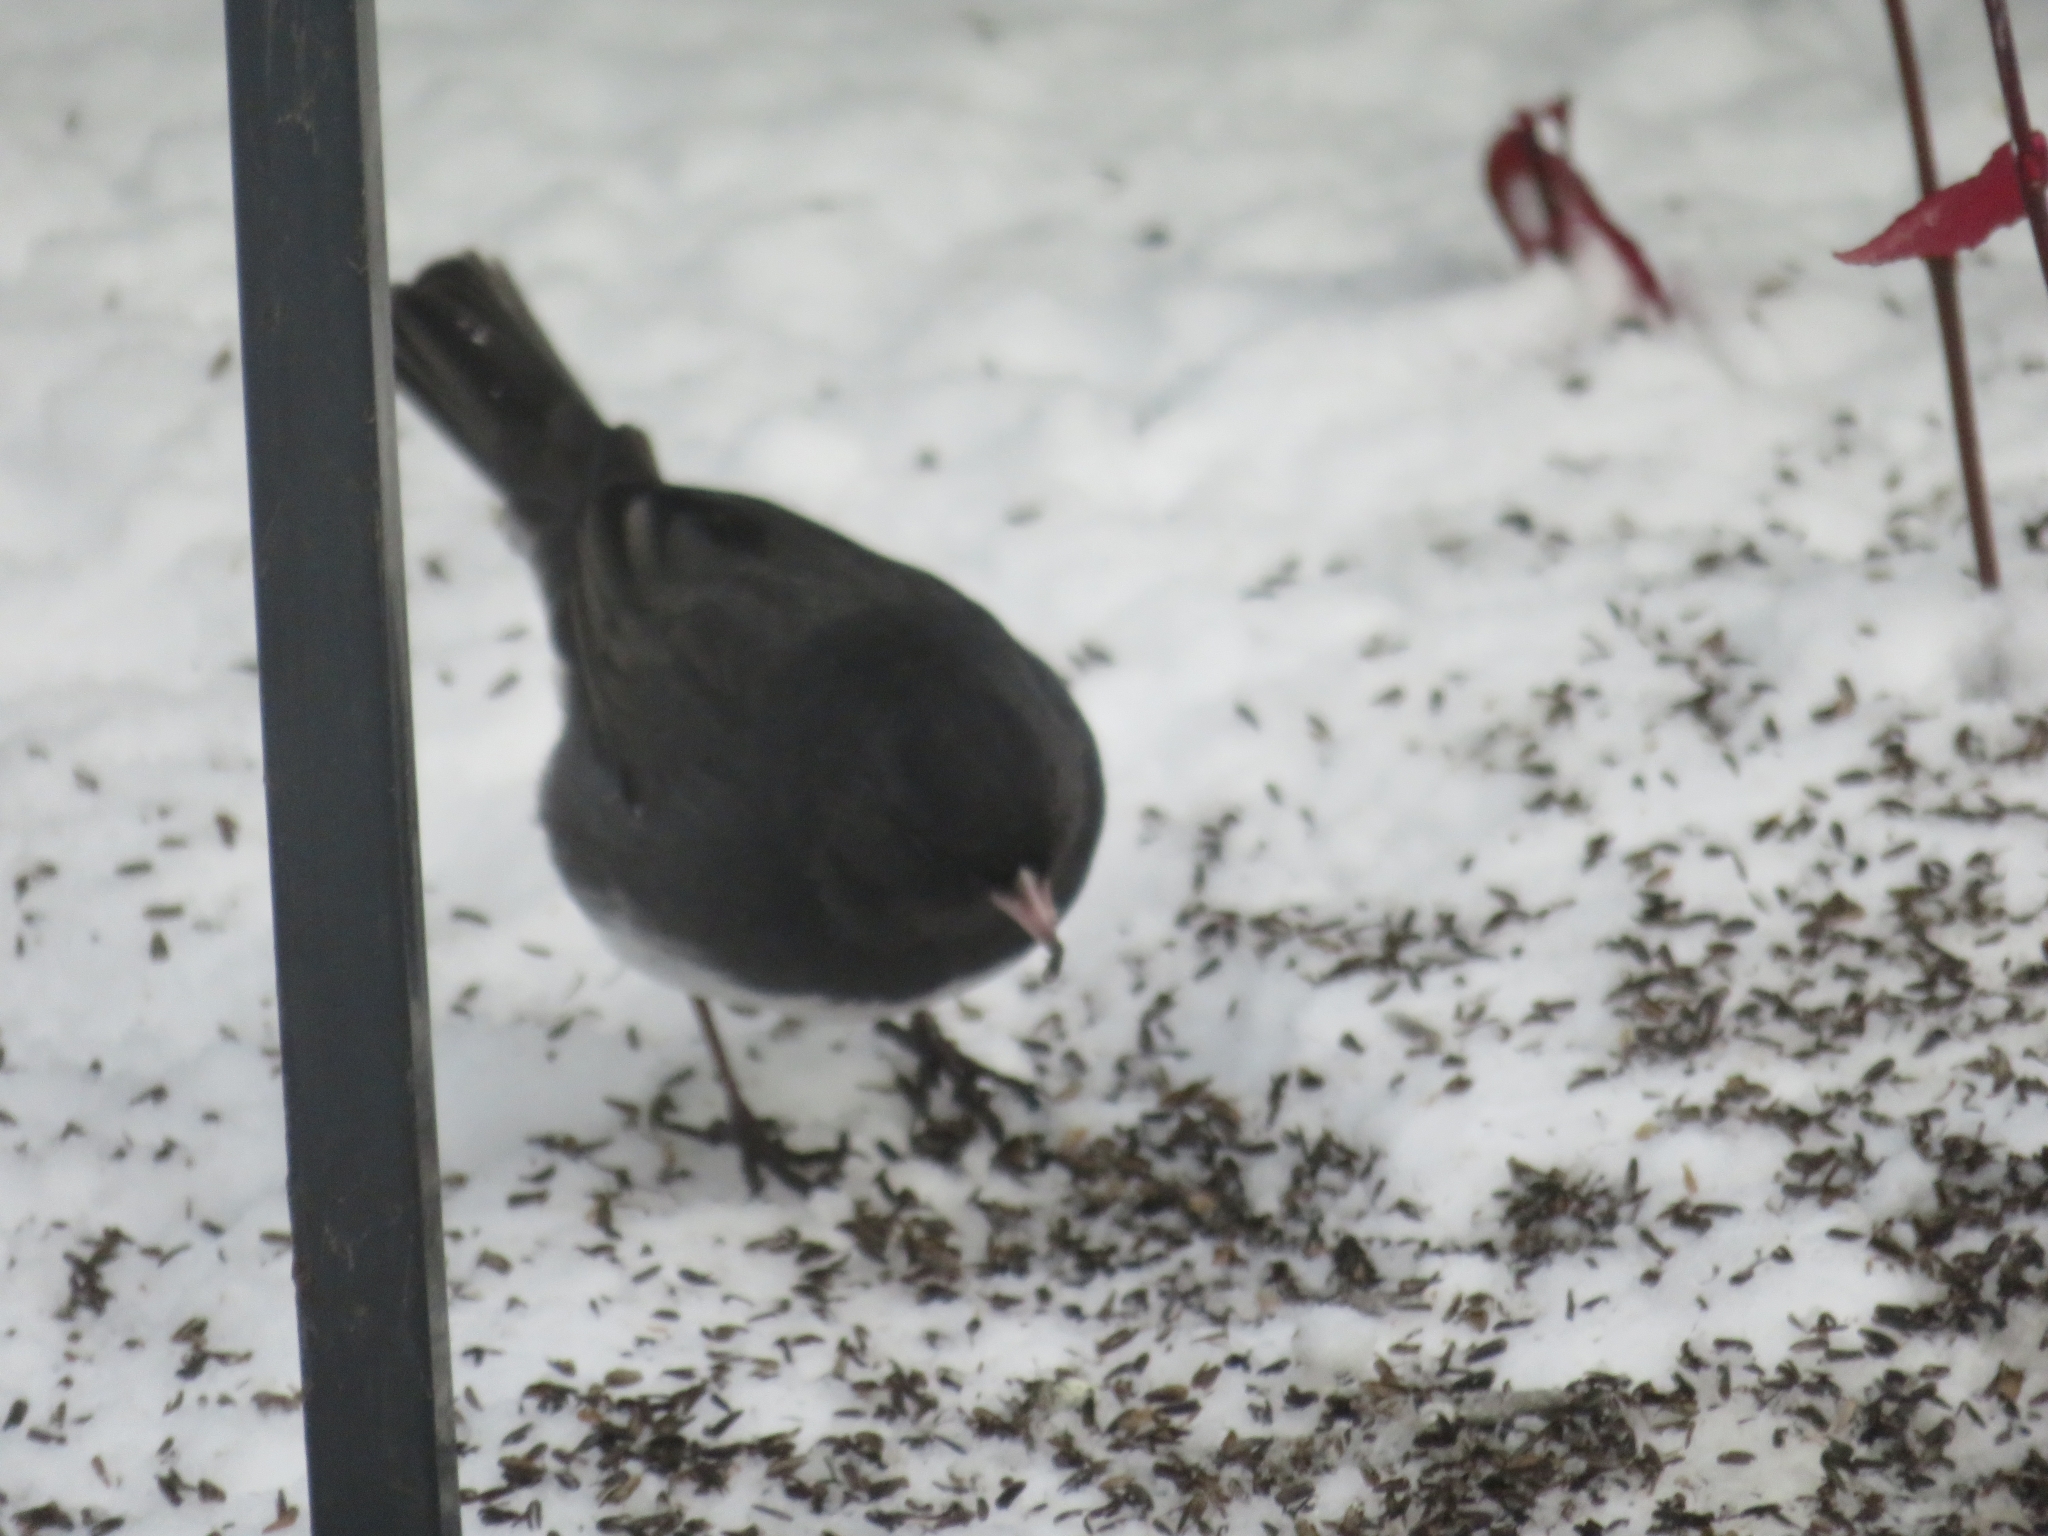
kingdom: Animalia
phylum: Chordata
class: Aves
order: Passeriformes
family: Passerellidae
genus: Junco
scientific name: Junco hyemalis
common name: Dark-eyed junco
